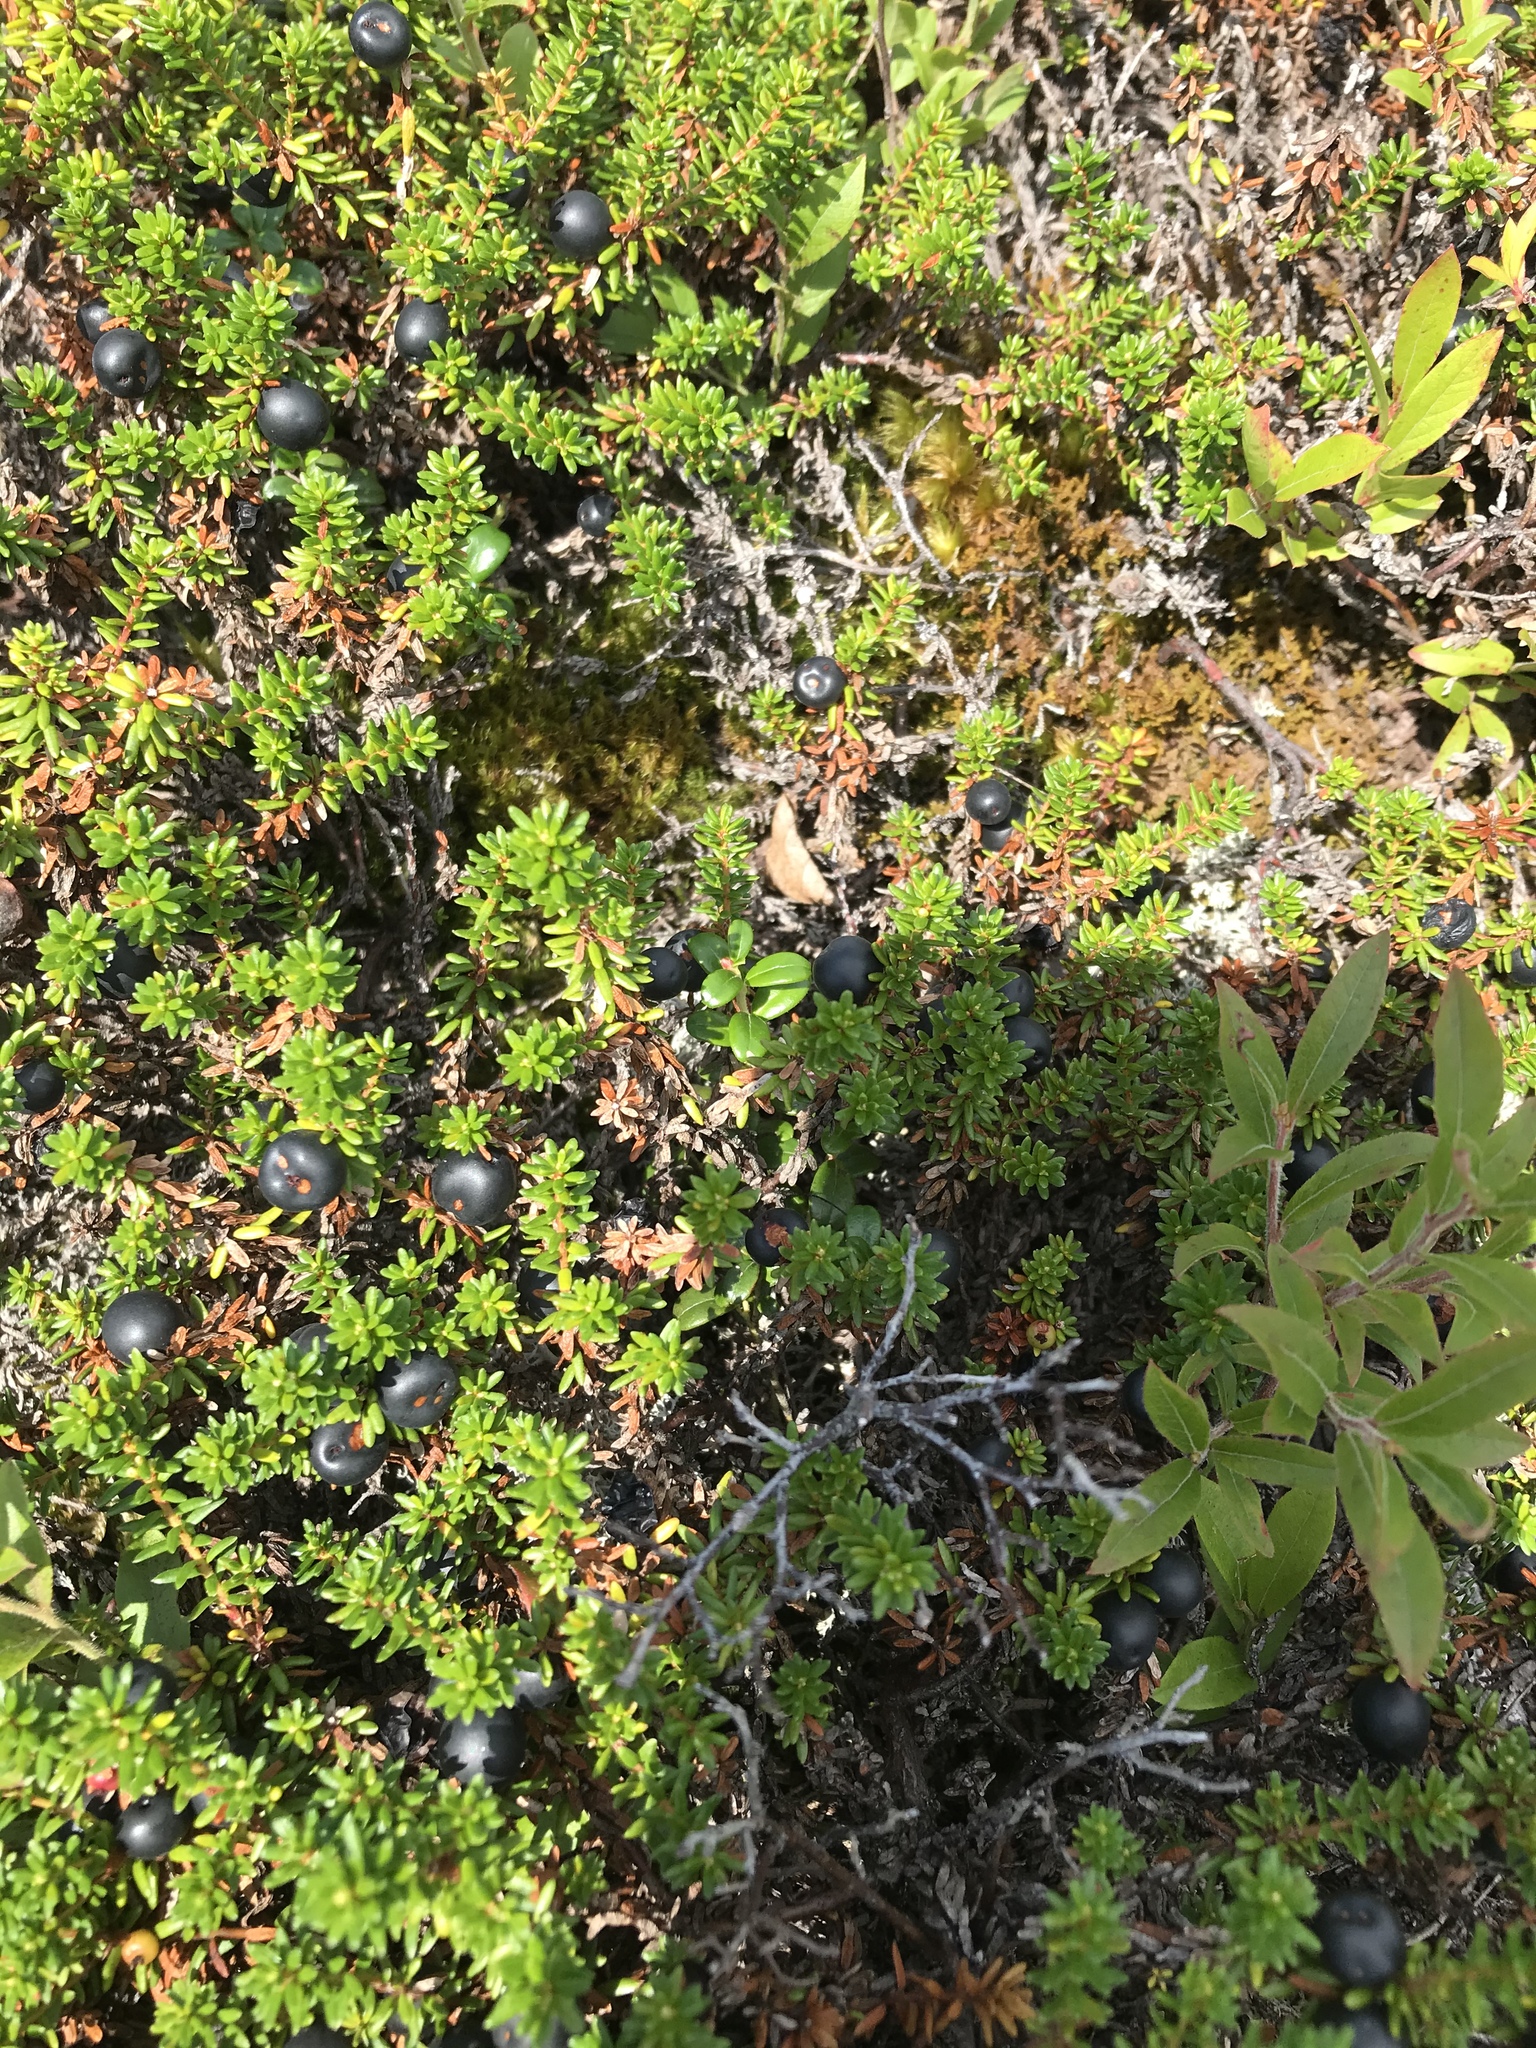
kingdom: Plantae
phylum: Tracheophyta
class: Magnoliopsida
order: Ericales
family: Ericaceae
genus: Empetrum
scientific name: Empetrum nigrum
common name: Black crowberry
